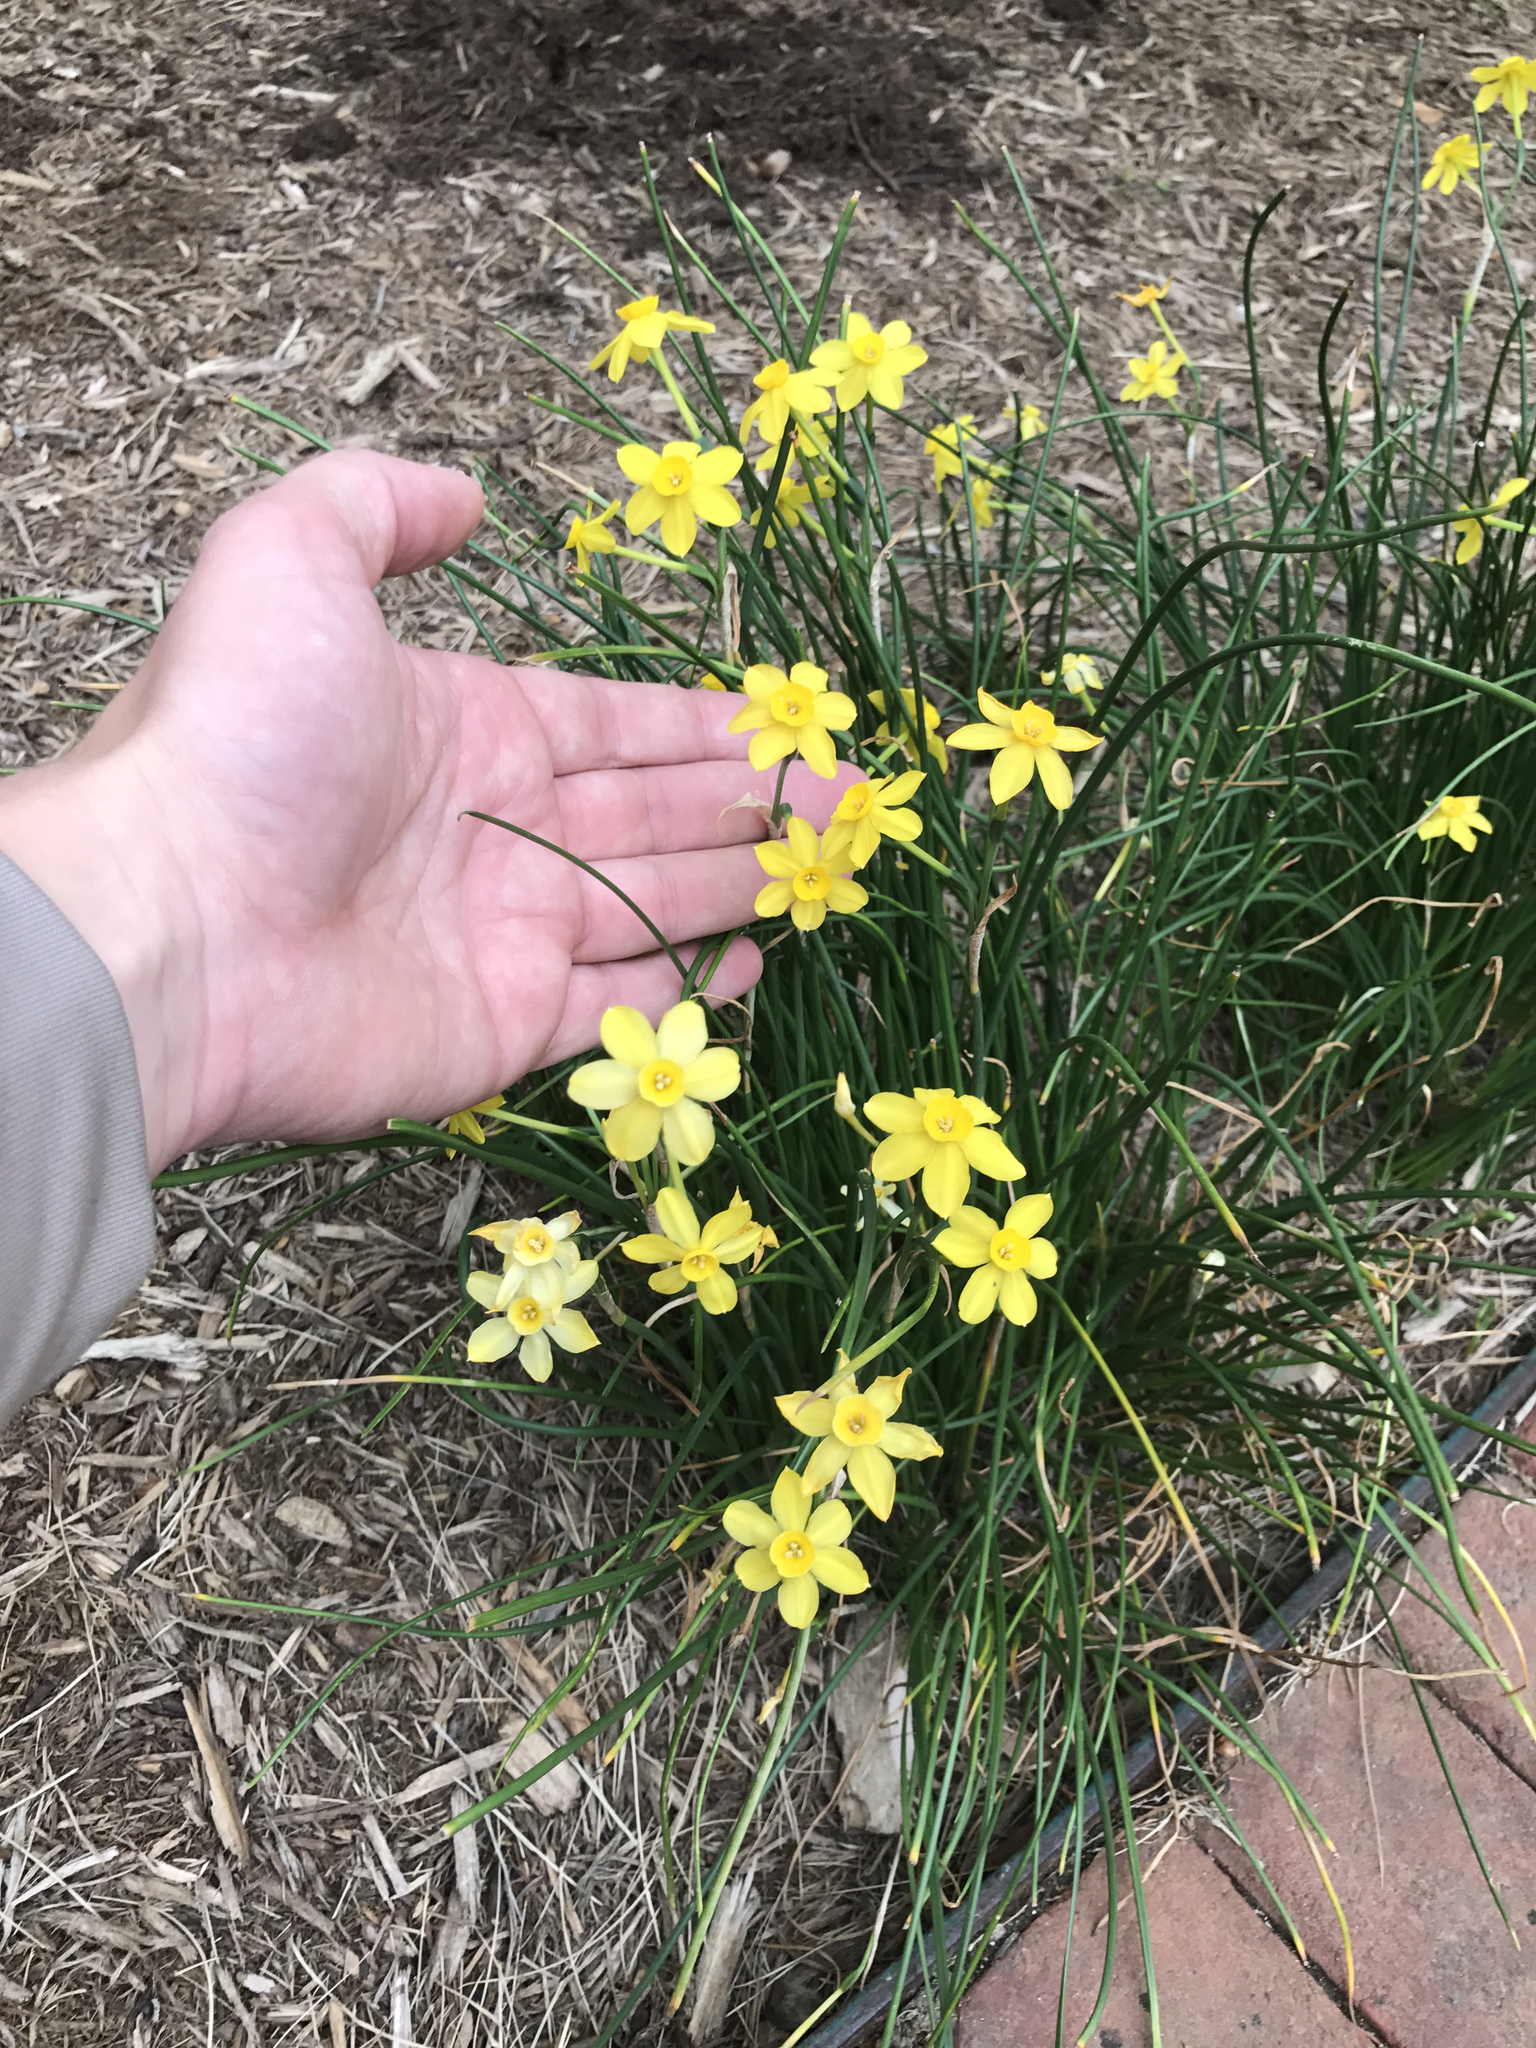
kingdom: Plantae
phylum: Tracheophyta
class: Liliopsida
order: Asparagales
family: Amaryllidaceae
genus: Narcissus
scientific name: Narcissus
